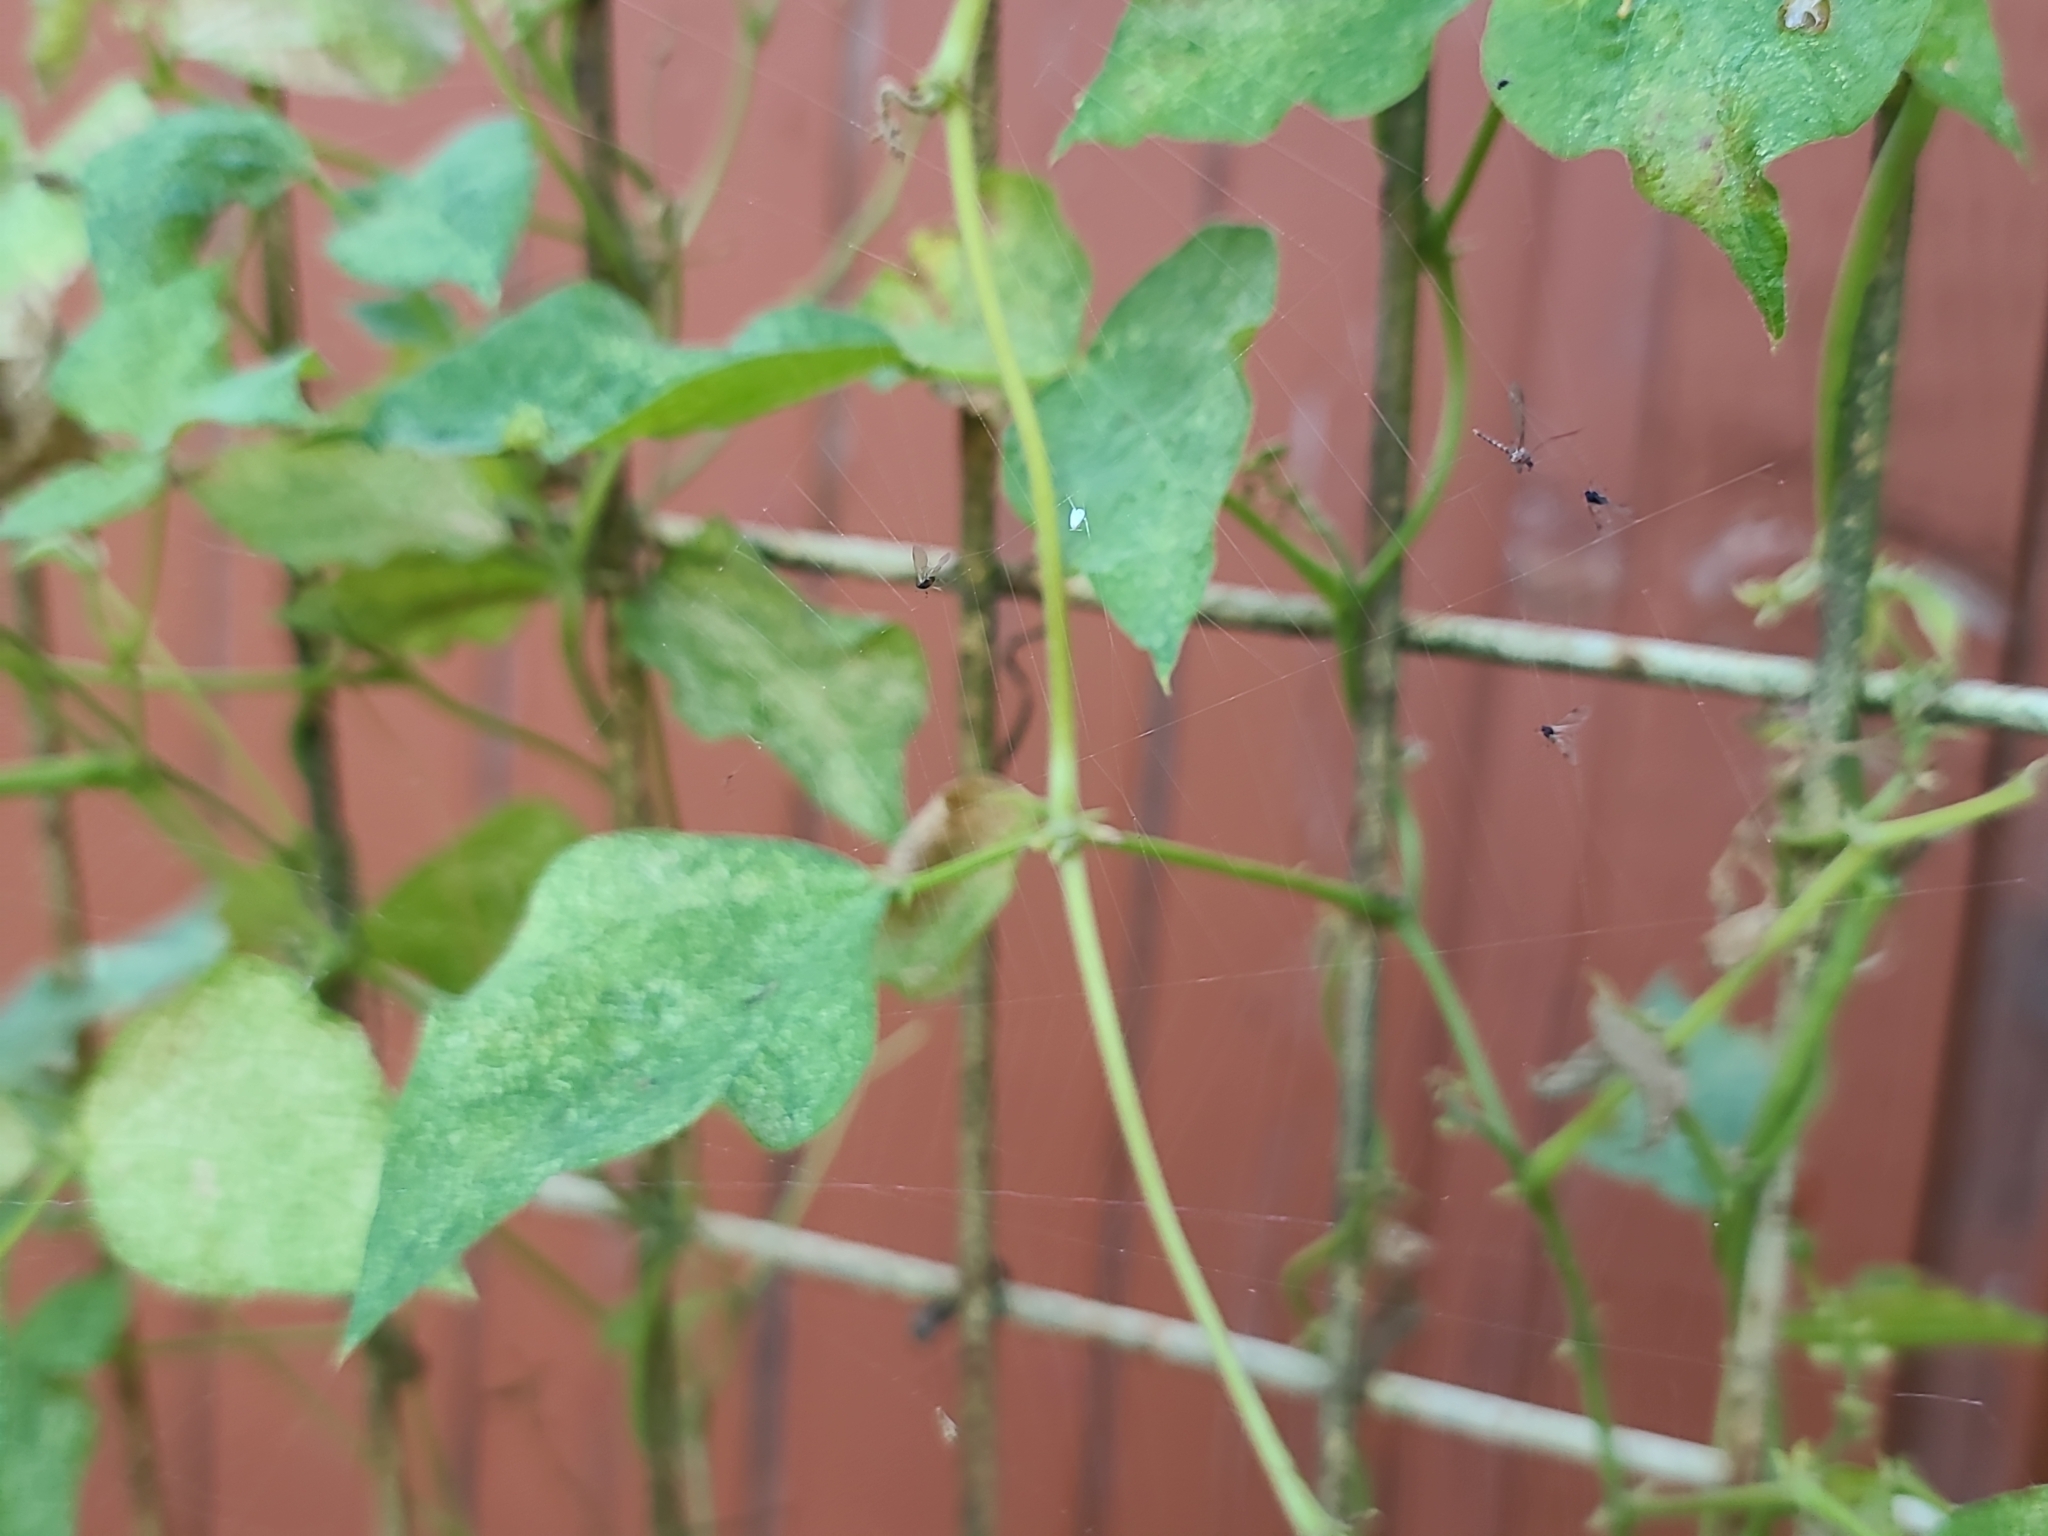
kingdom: Animalia
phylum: Arthropoda
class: Insecta
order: Hemiptera
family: Pentatomidae
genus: Halyomorpha
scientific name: Halyomorpha halys
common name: Brown marmorated stink bug
